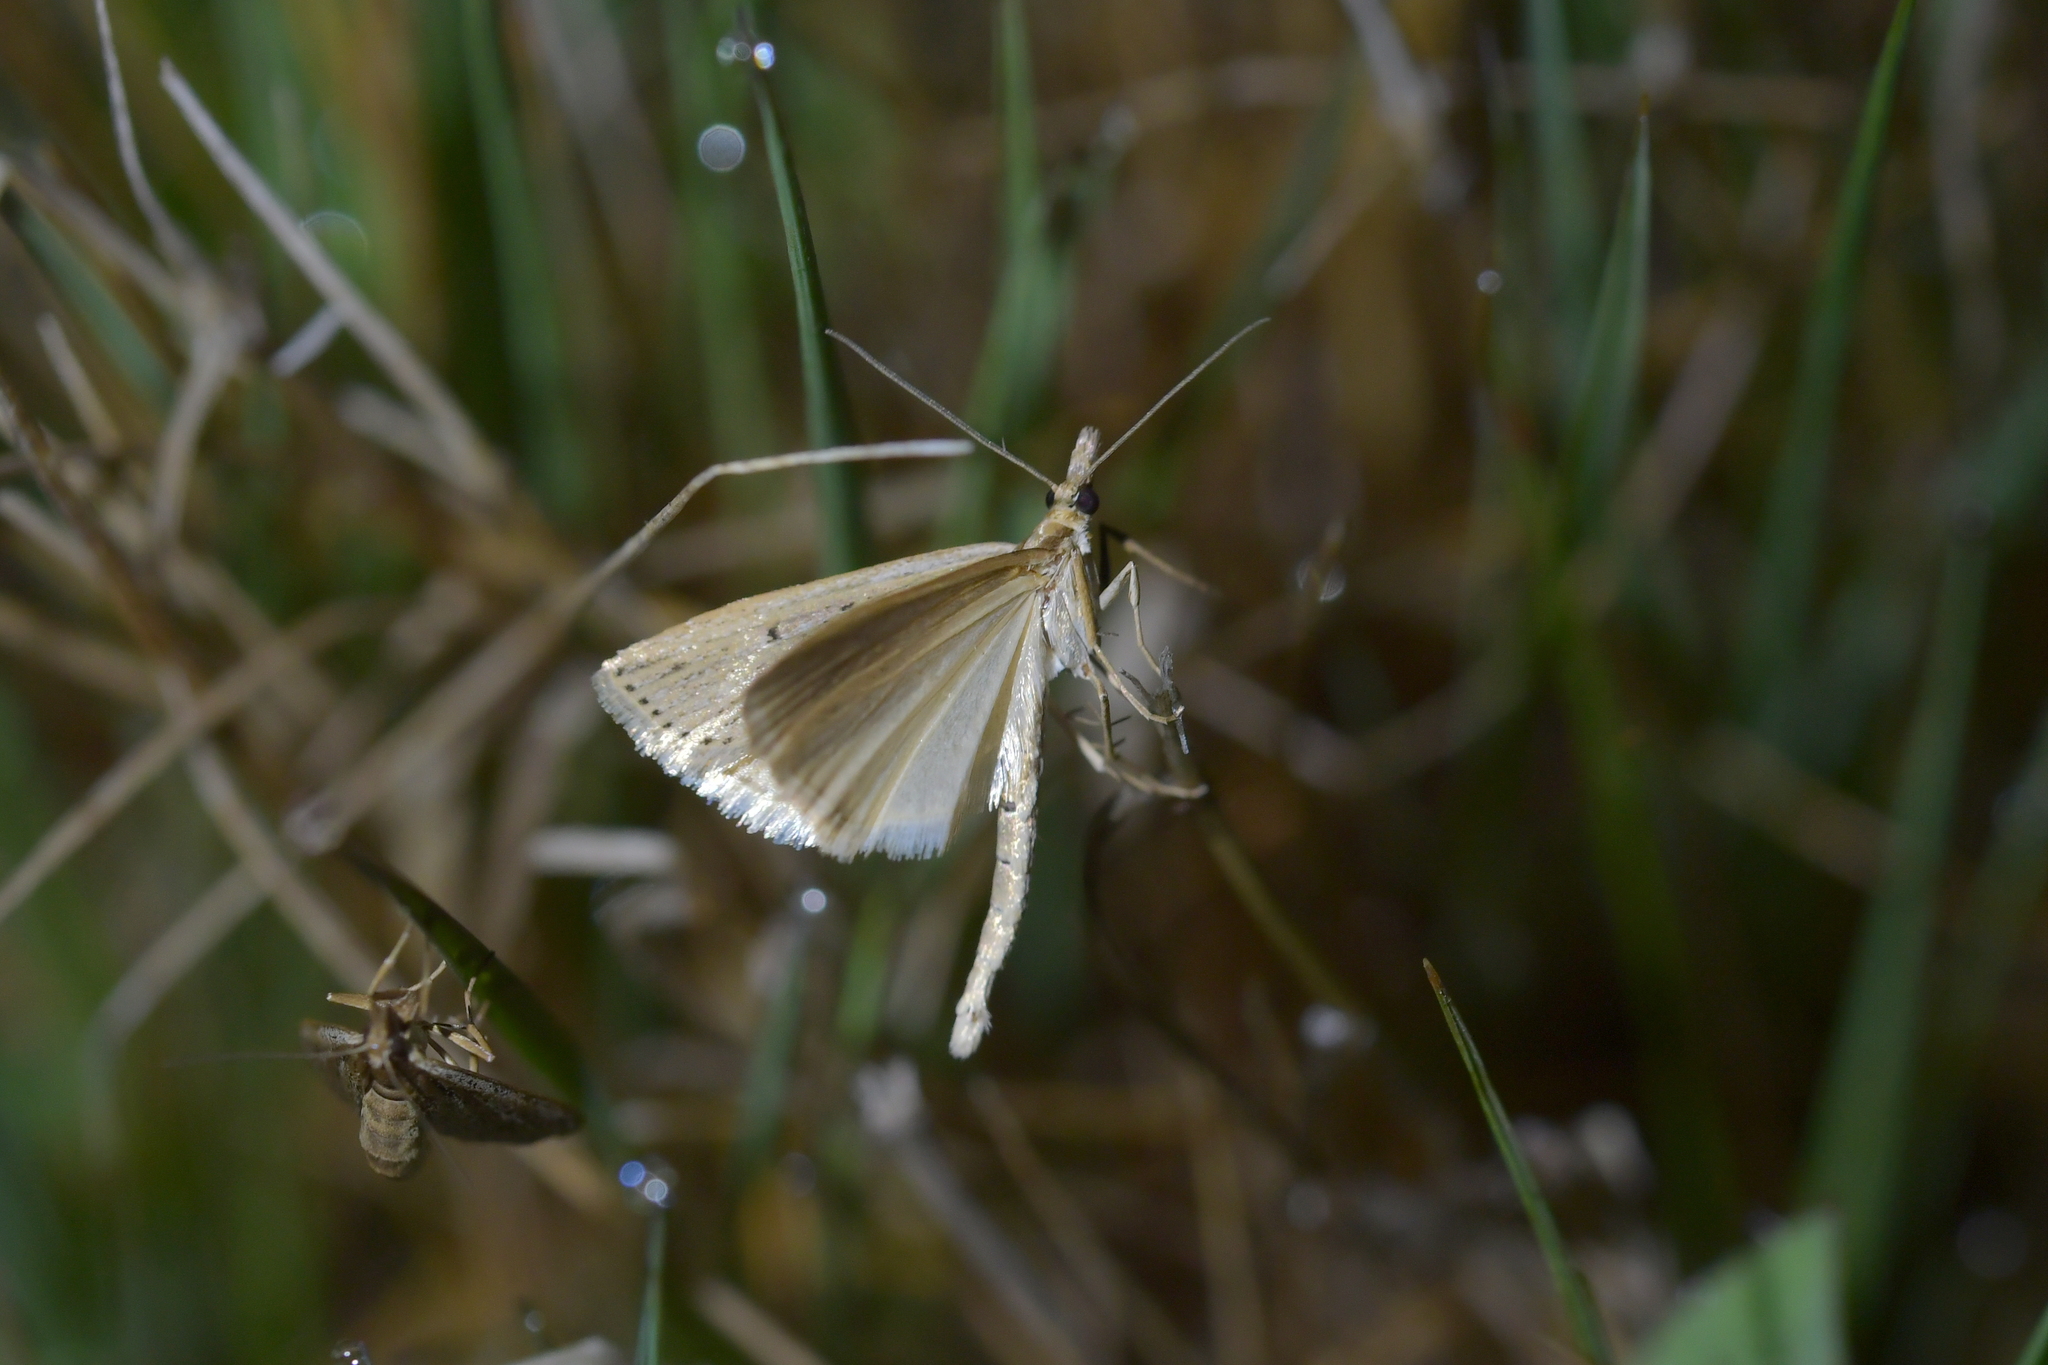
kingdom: Animalia
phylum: Arthropoda
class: Insecta
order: Lepidoptera
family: Crambidae
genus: Eudonia
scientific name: Eudonia sabulosella
